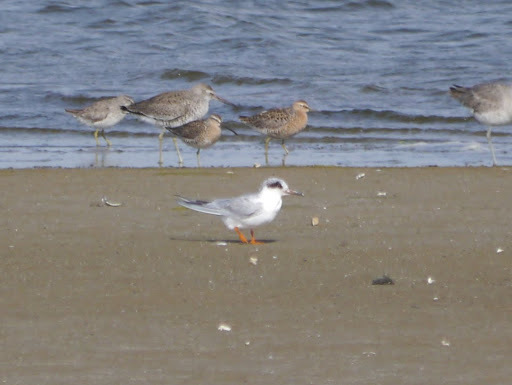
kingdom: Animalia
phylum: Chordata
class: Aves
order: Charadriiformes
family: Laridae
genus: Sterna
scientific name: Sterna forsteri
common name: Forster's tern
